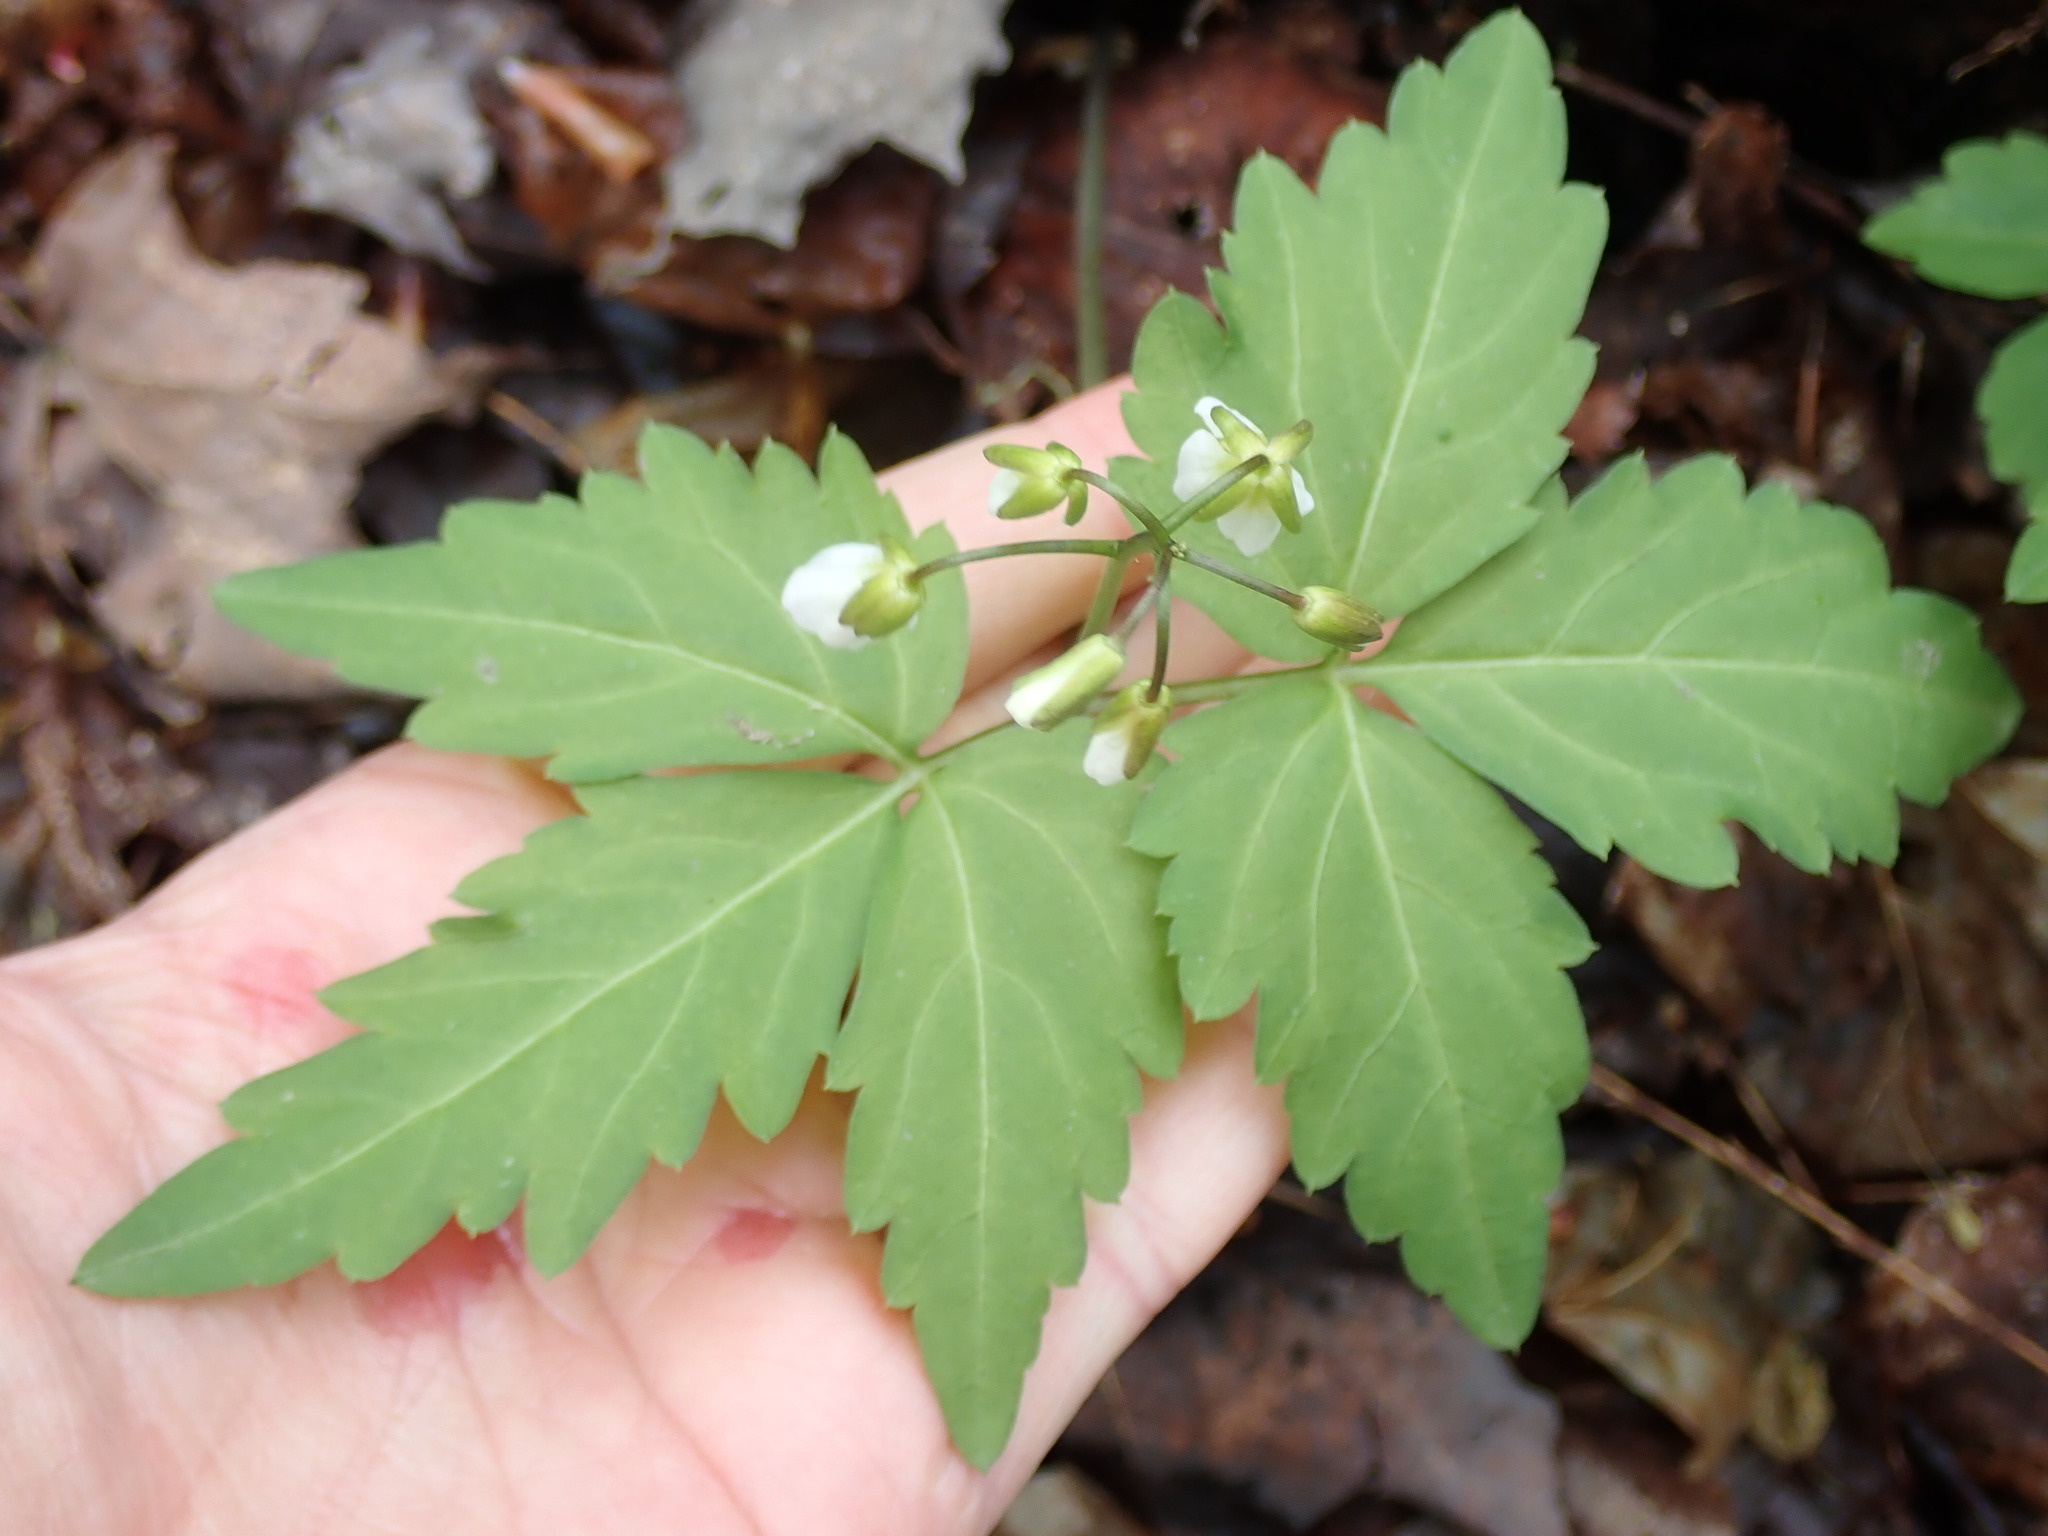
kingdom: Plantae
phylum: Tracheophyta
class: Magnoliopsida
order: Brassicales
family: Brassicaceae
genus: Cardamine
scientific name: Cardamine diphylla
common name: Broad-leaved toothwort
